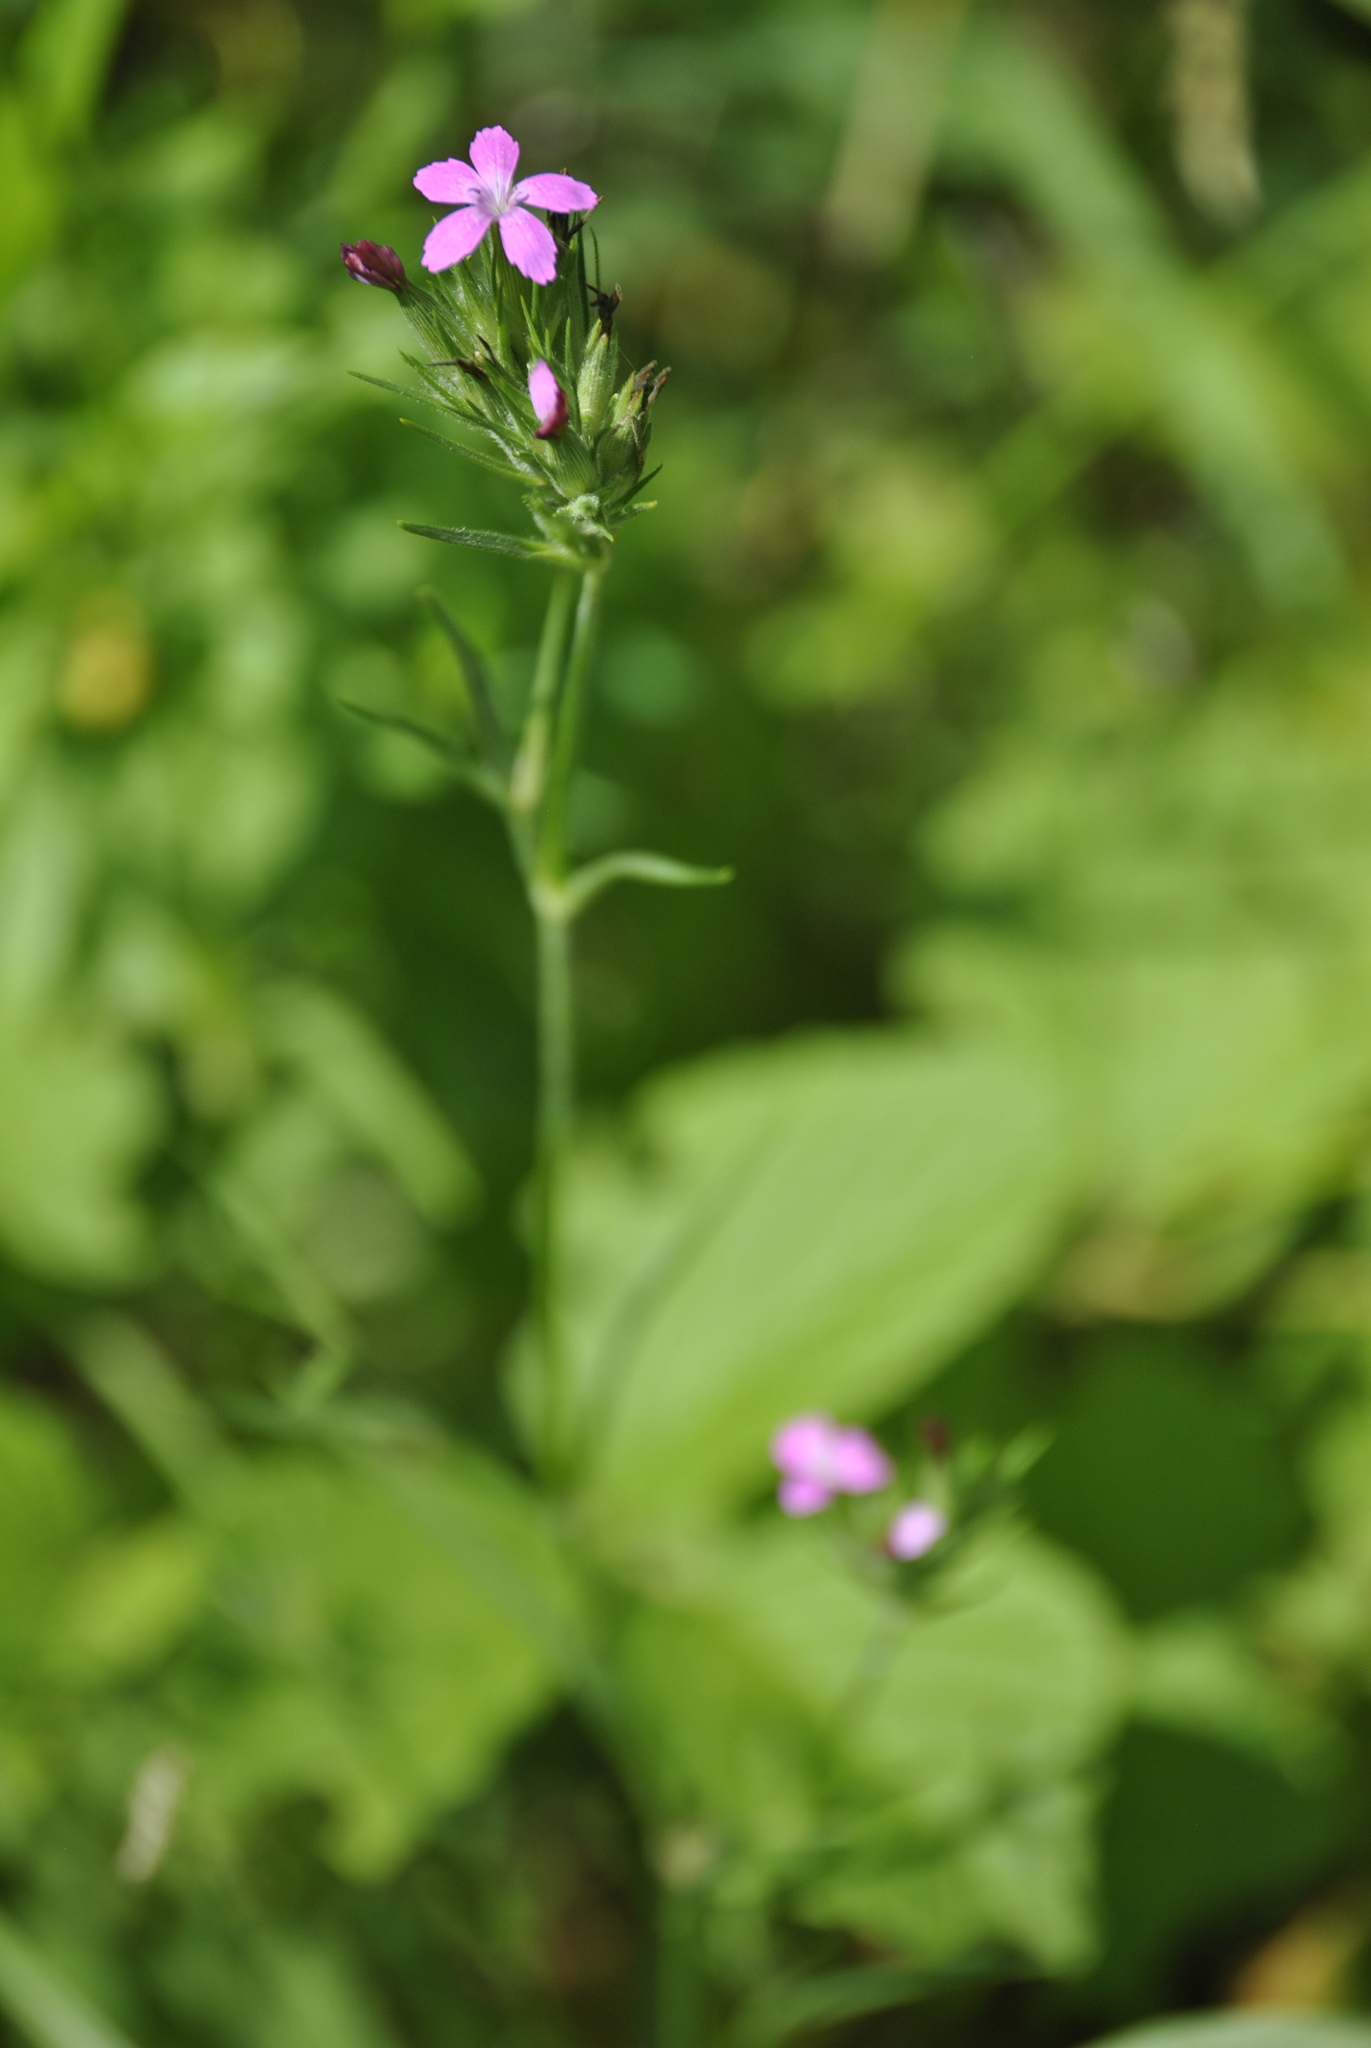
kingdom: Plantae
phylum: Tracheophyta
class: Magnoliopsida
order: Caryophyllales
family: Caryophyllaceae
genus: Dianthus
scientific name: Dianthus armeria
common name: Deptford pink
